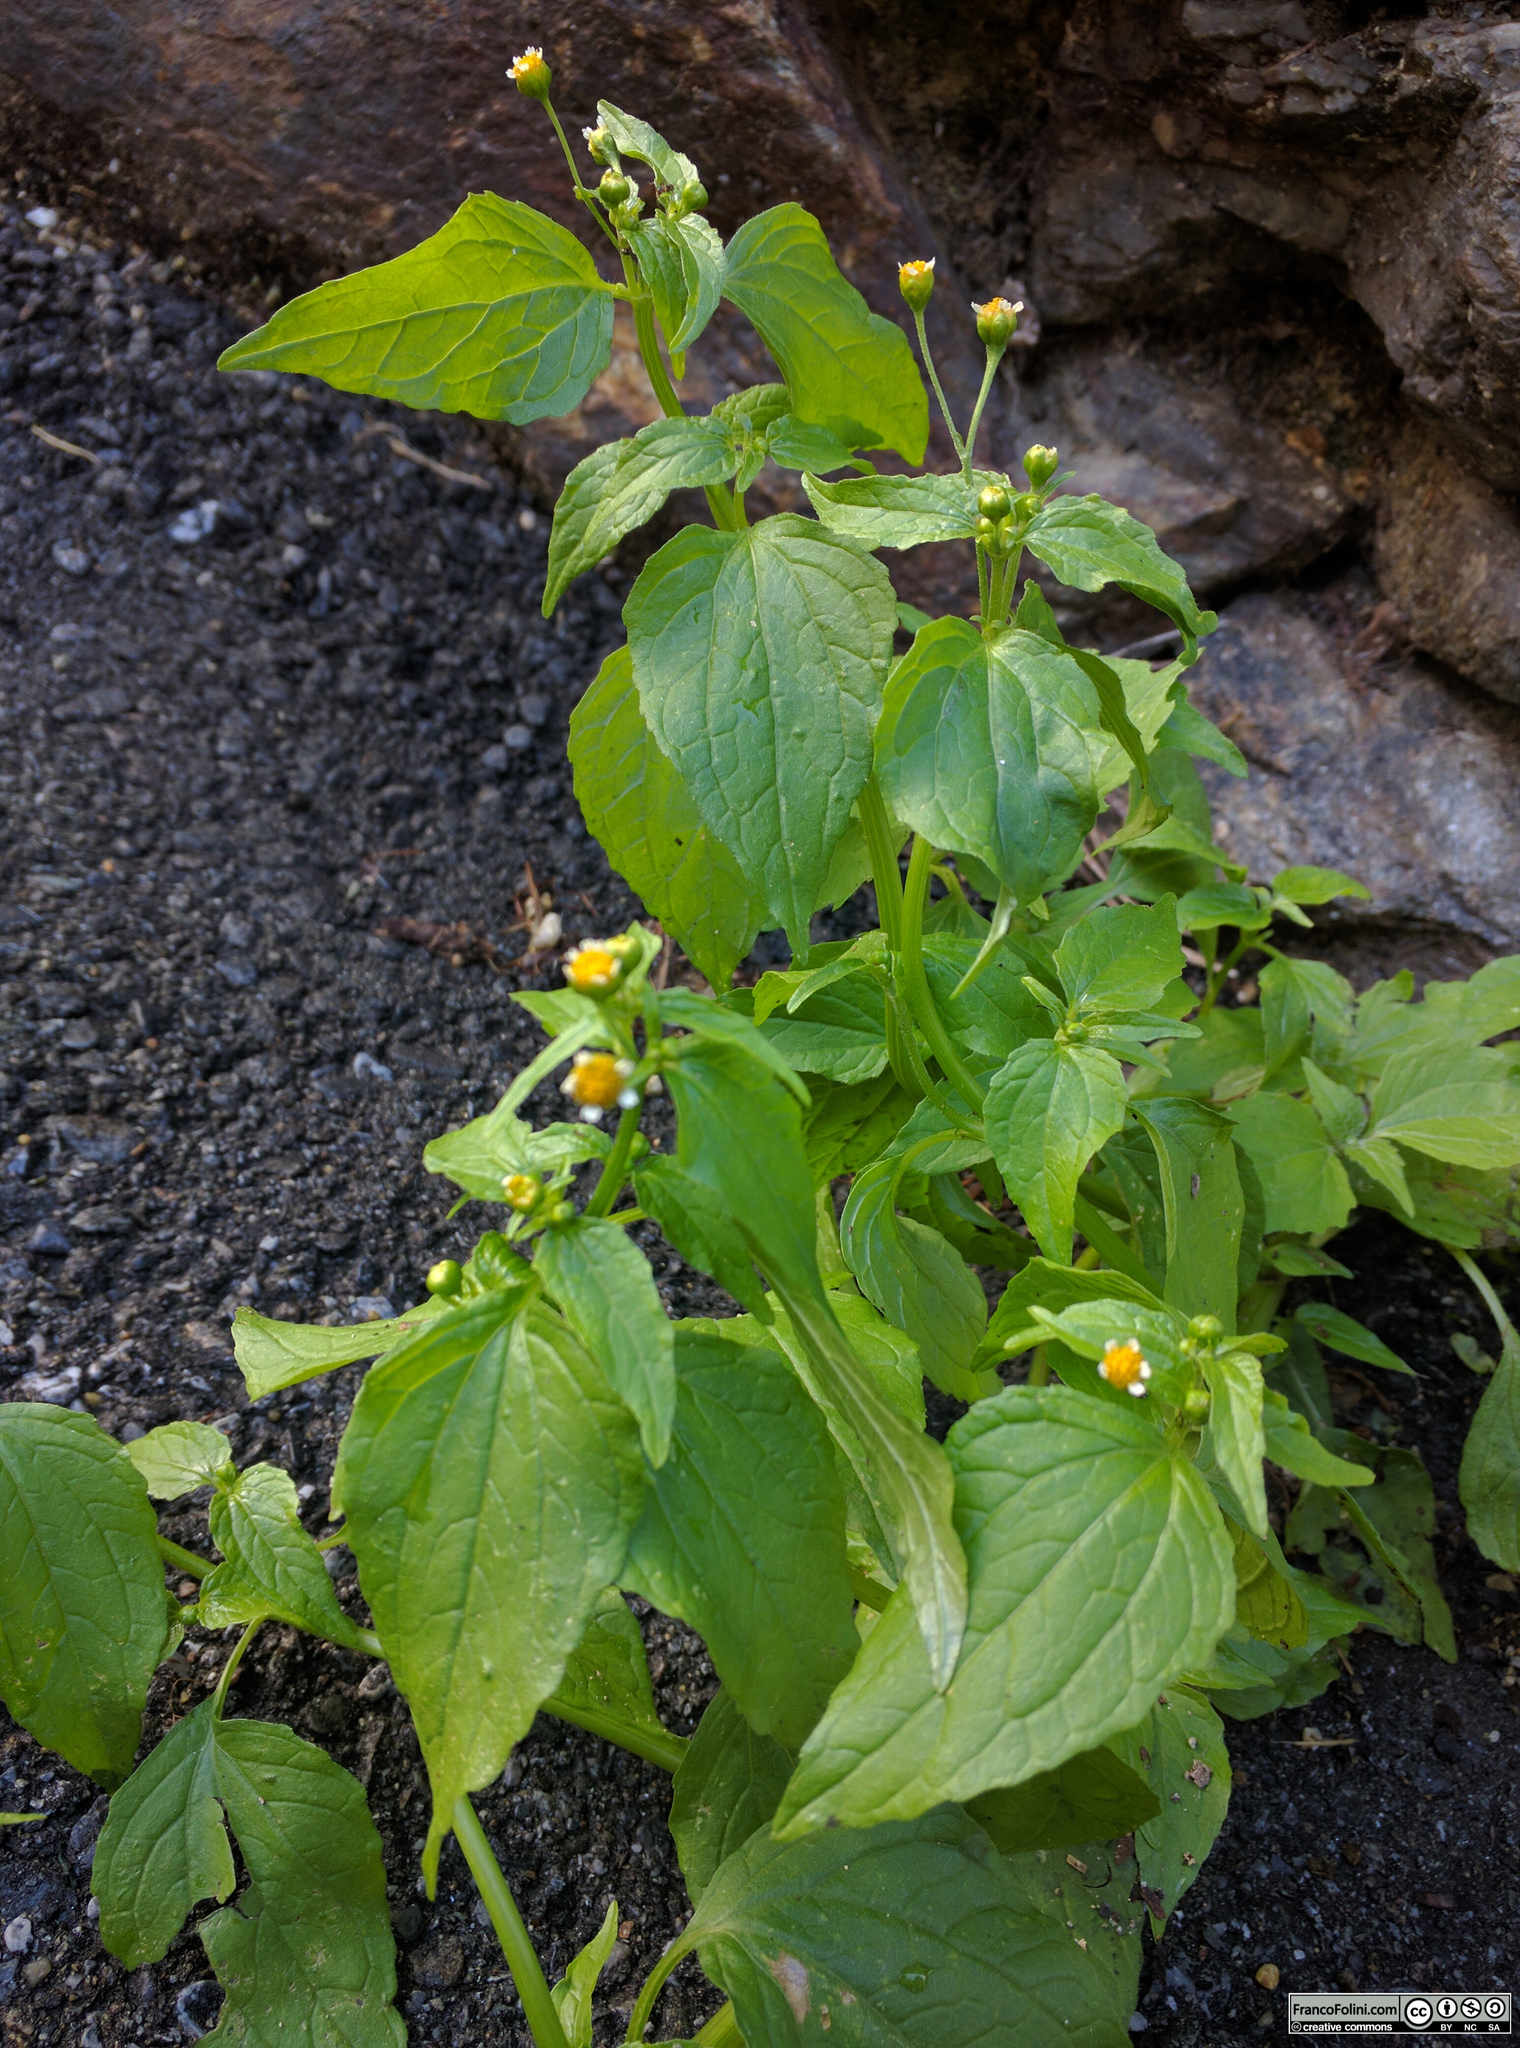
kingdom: Plantae
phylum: Tracheophyta
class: Magnoliopsida
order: Asterales
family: Asteraceae
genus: Galinsoga
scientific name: Galinsoga quadriradiata
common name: Shaggy soldier
